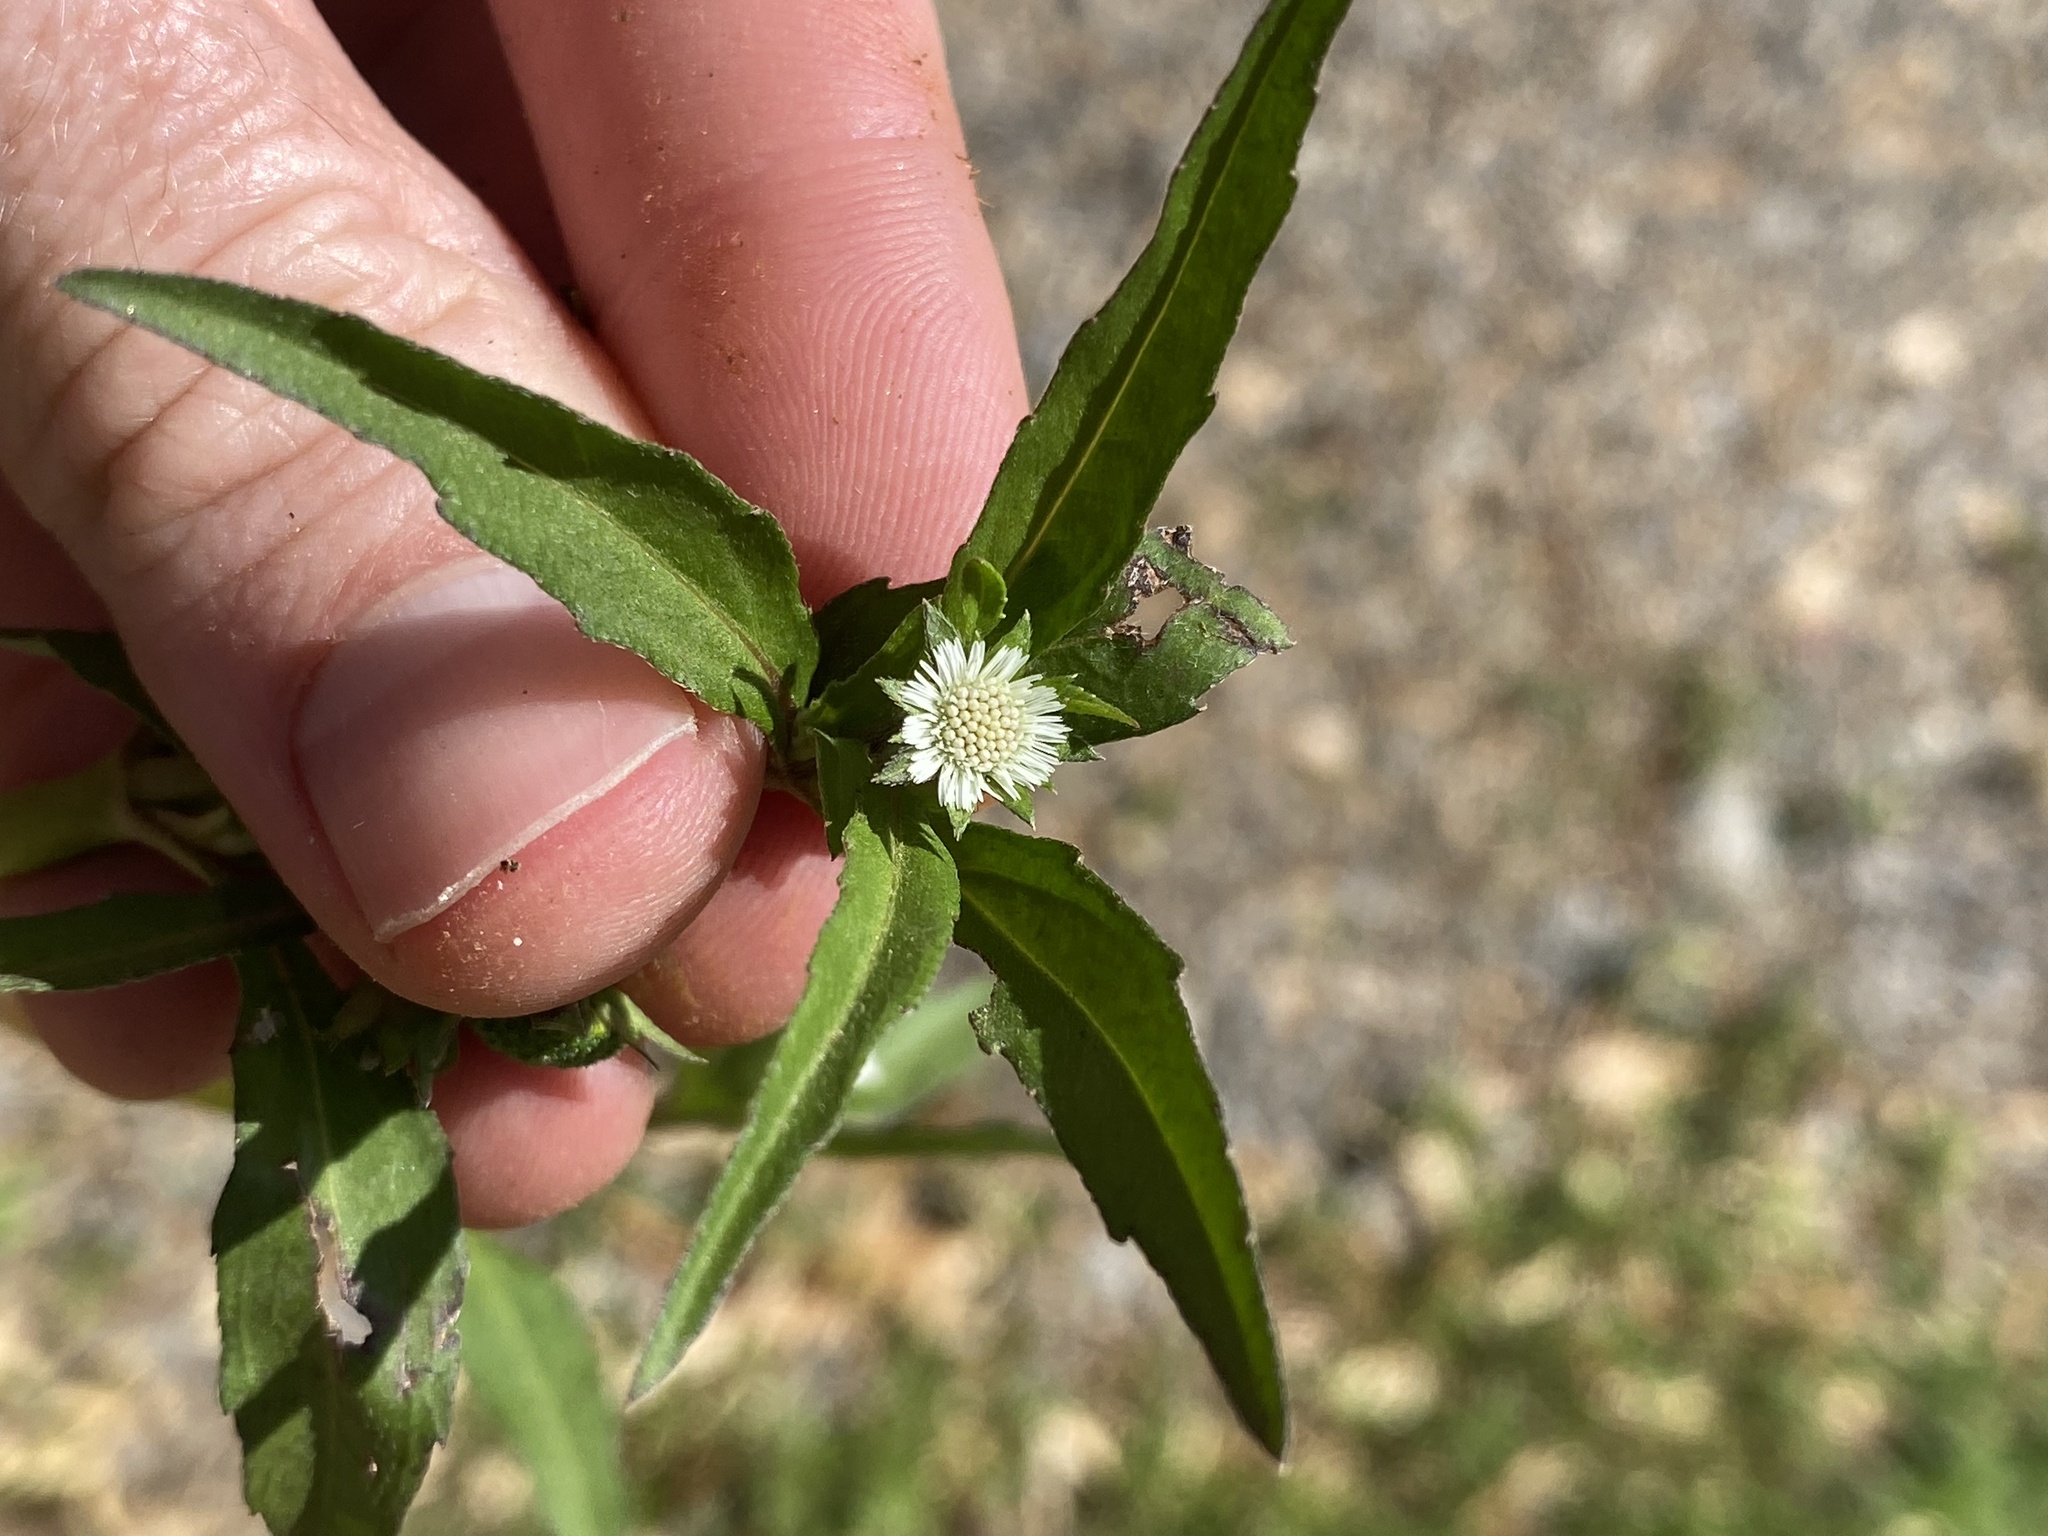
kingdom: Plantae
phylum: Tracheophyta
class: Magnoliopsida
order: Asterales
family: Asteraceae
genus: Eclipta
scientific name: Eclipta prostrata
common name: False daisy
